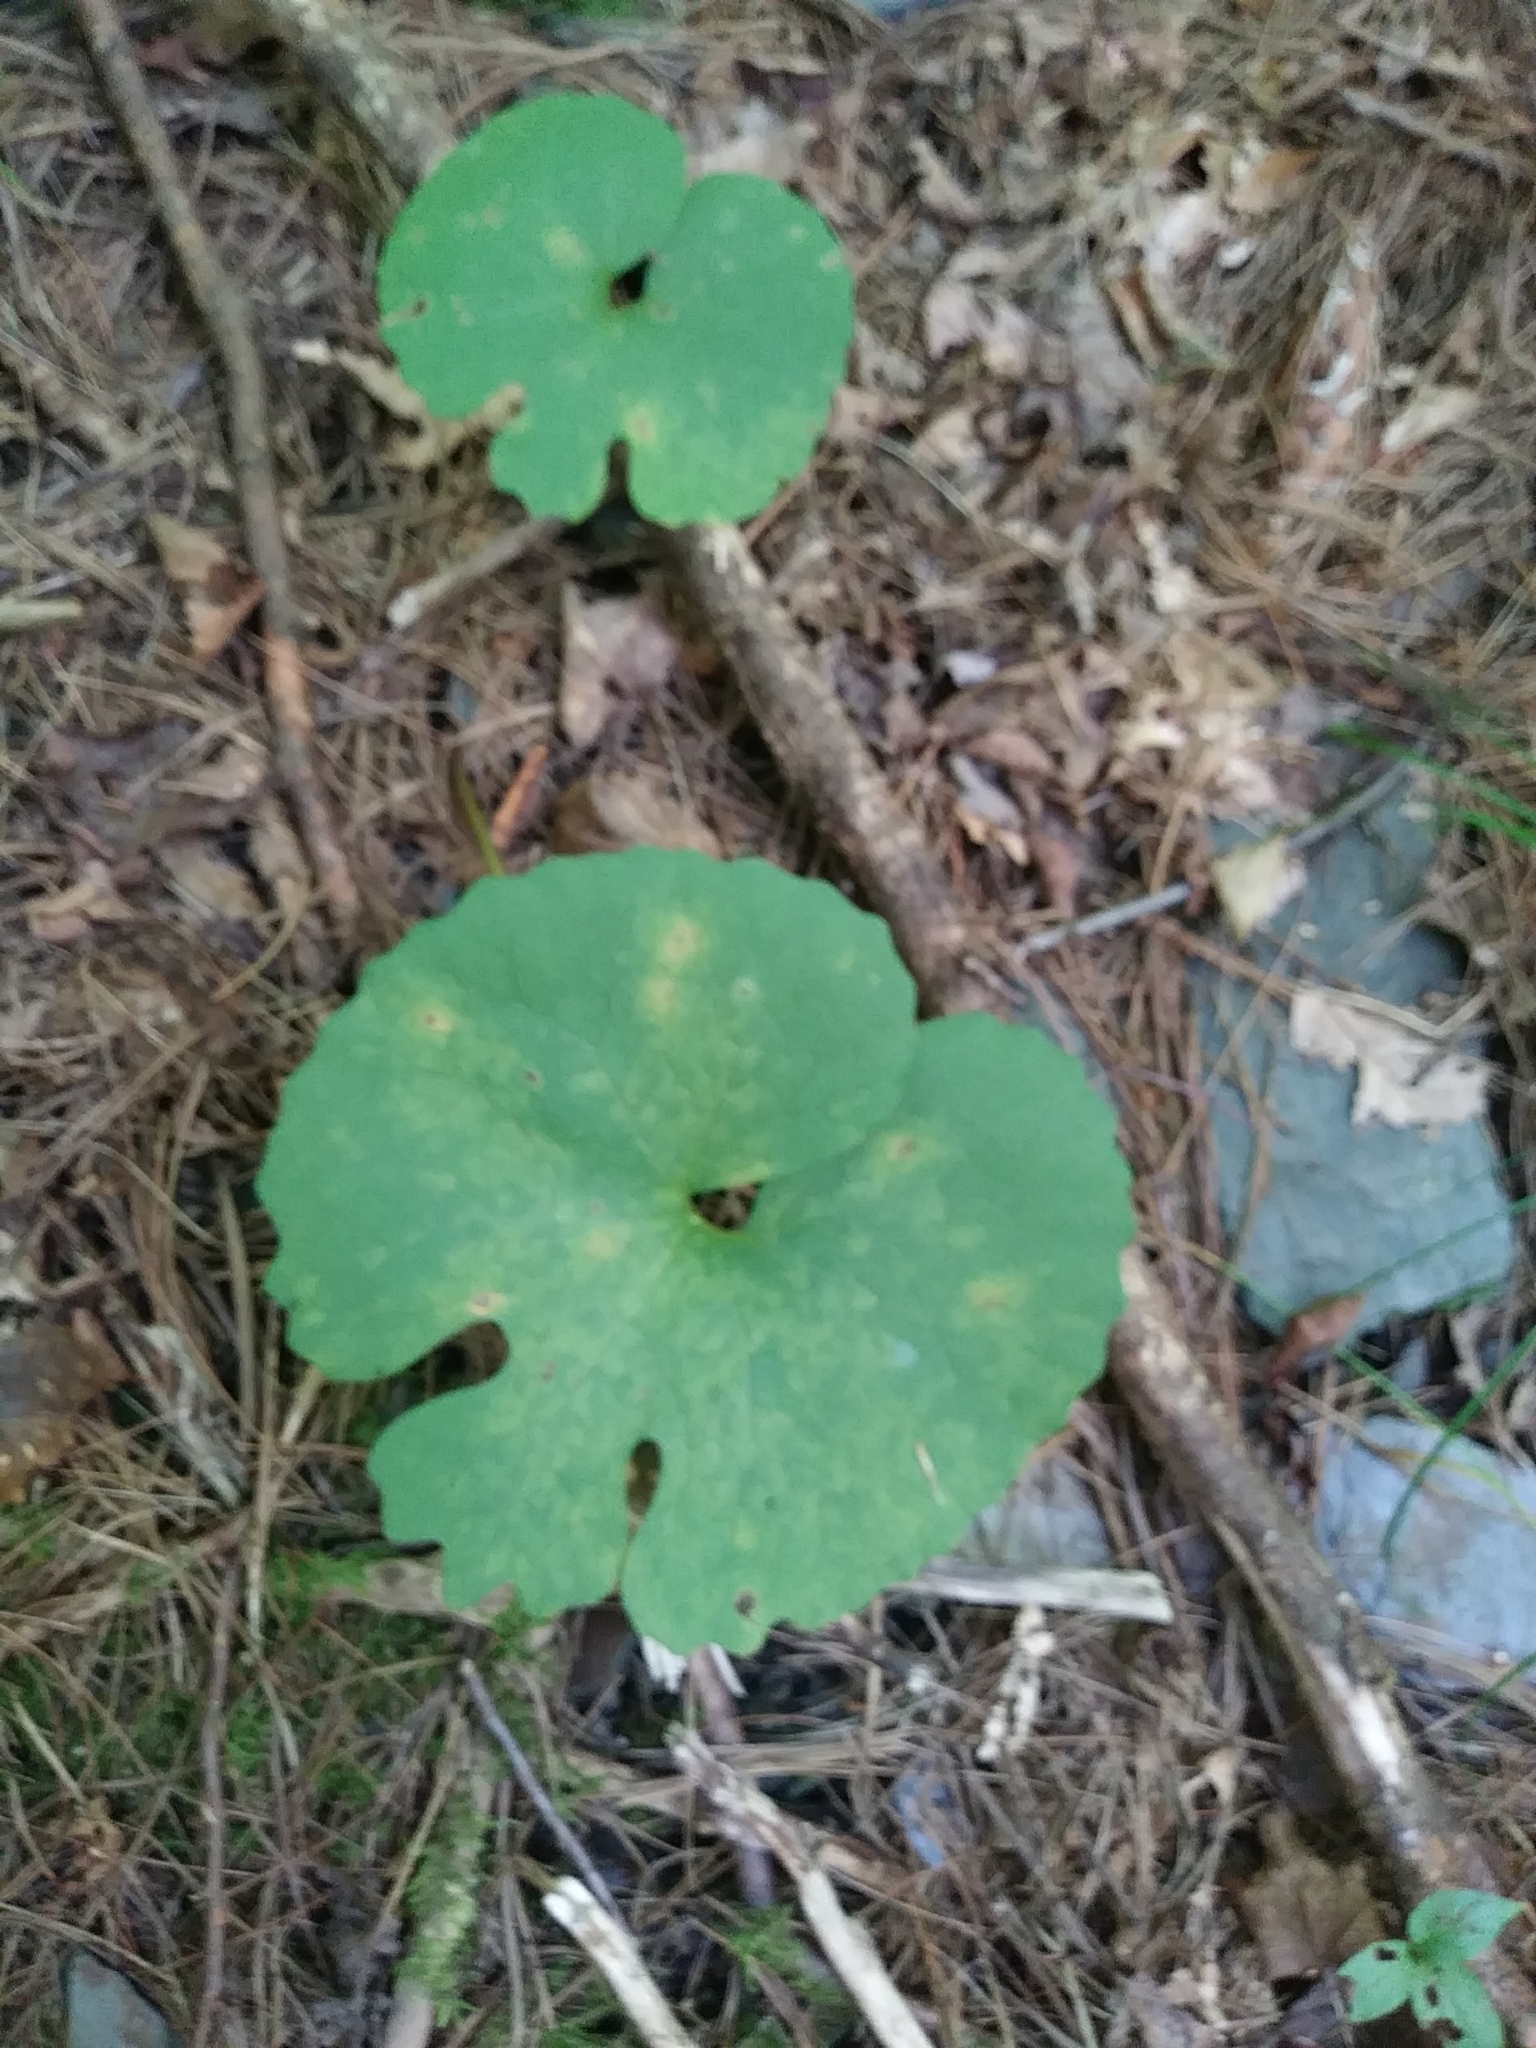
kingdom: Plantae
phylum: Tracheophyta
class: Magnoliopsida
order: Ranunculales
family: Papaveraceae
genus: Sanguinaria
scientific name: Sanguinaria canadensis
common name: Bloodroot
